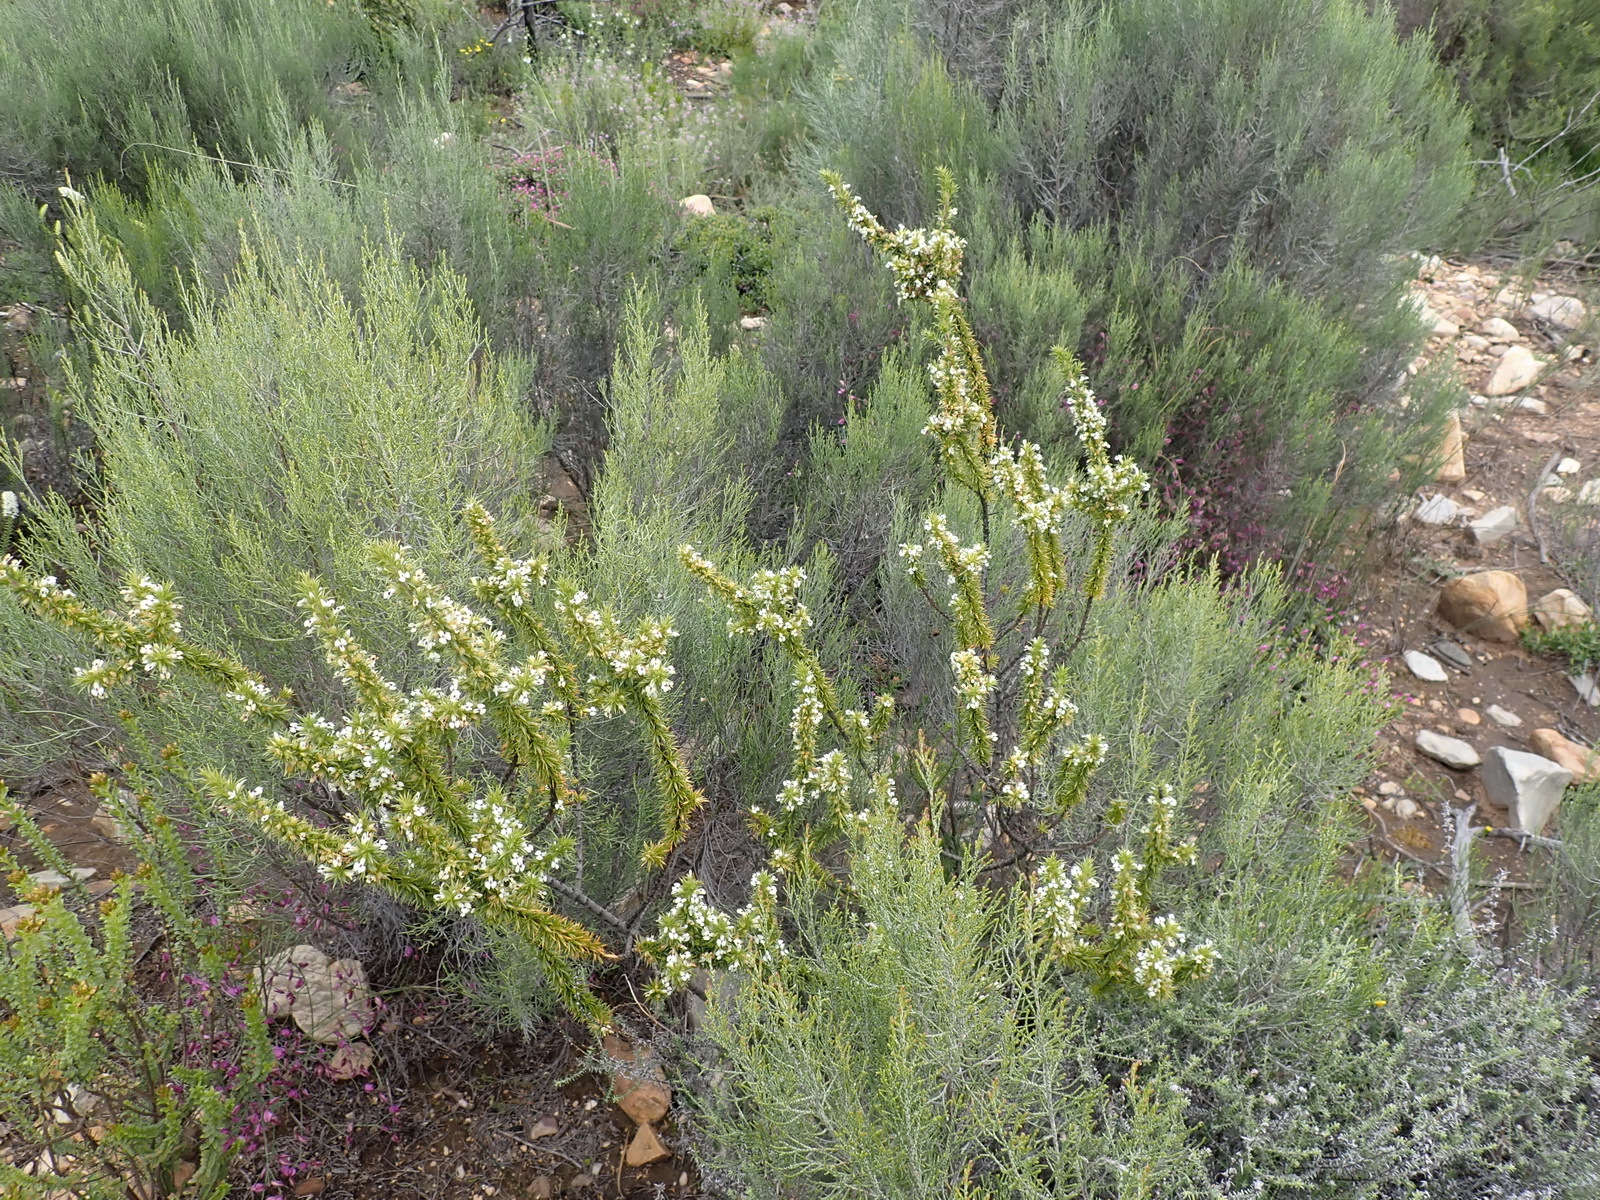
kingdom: Plantae
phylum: Tracheophyta
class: Magnoliopsida
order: Fabales
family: Polygalaceae
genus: Muraltia
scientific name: Muraltia ericifolia
